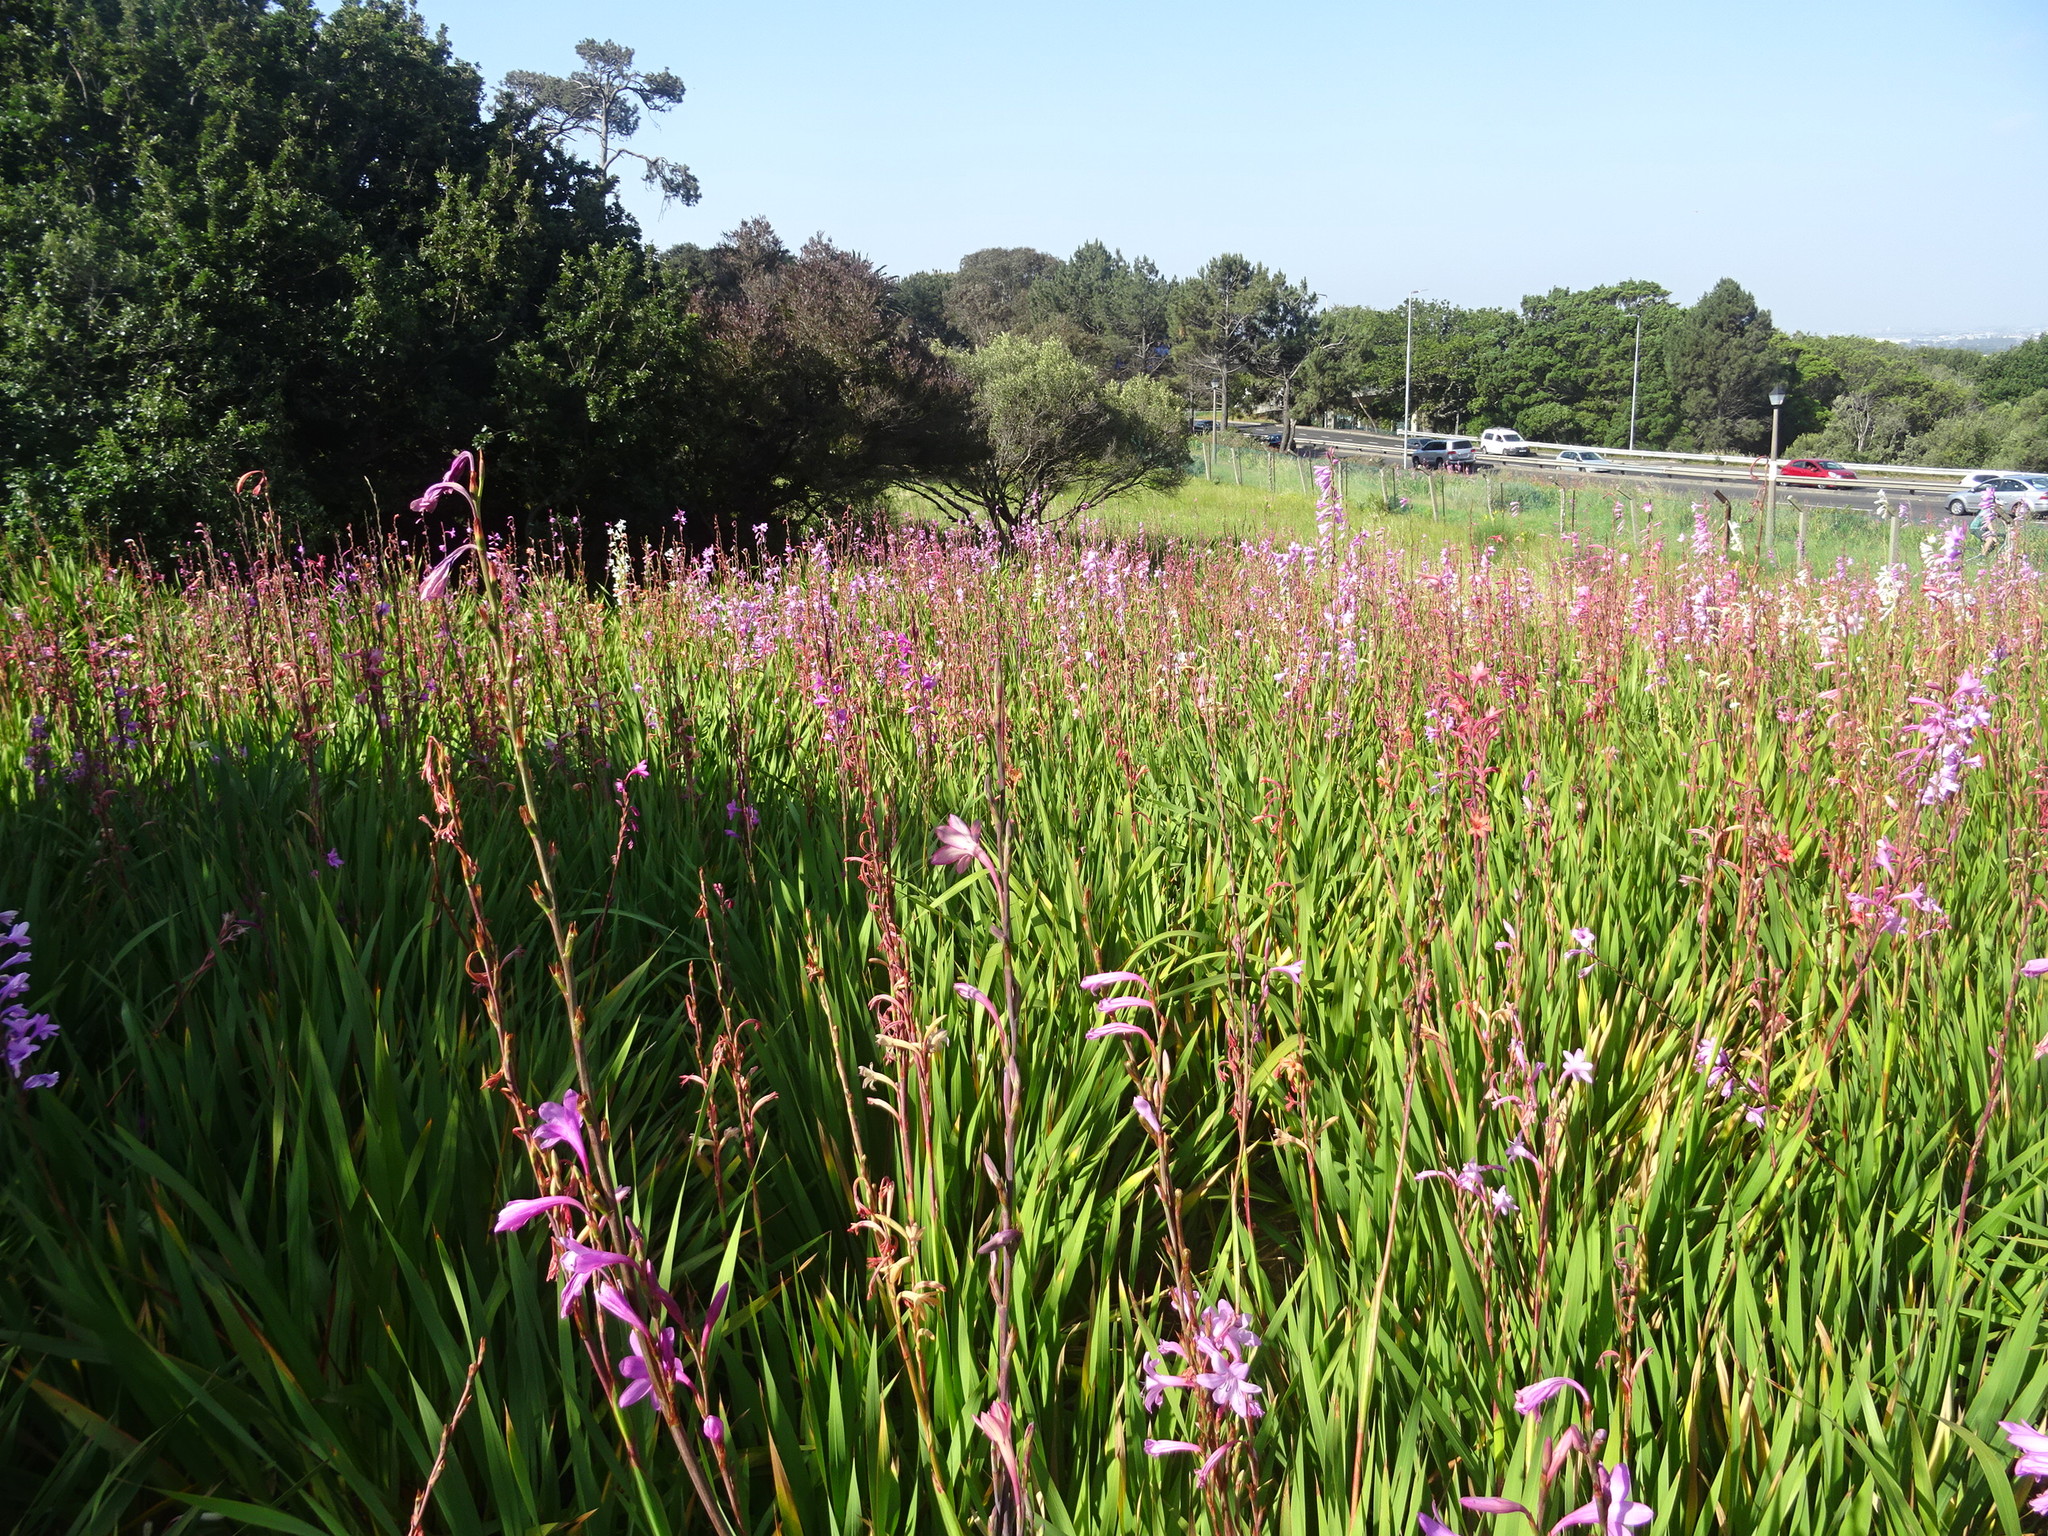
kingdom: Plantae
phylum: Tracheophyta
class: Liliopsida
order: Asparagales
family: Iridaceae
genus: Watsonia
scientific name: Watsonia borbonica
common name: Bugle-lily
